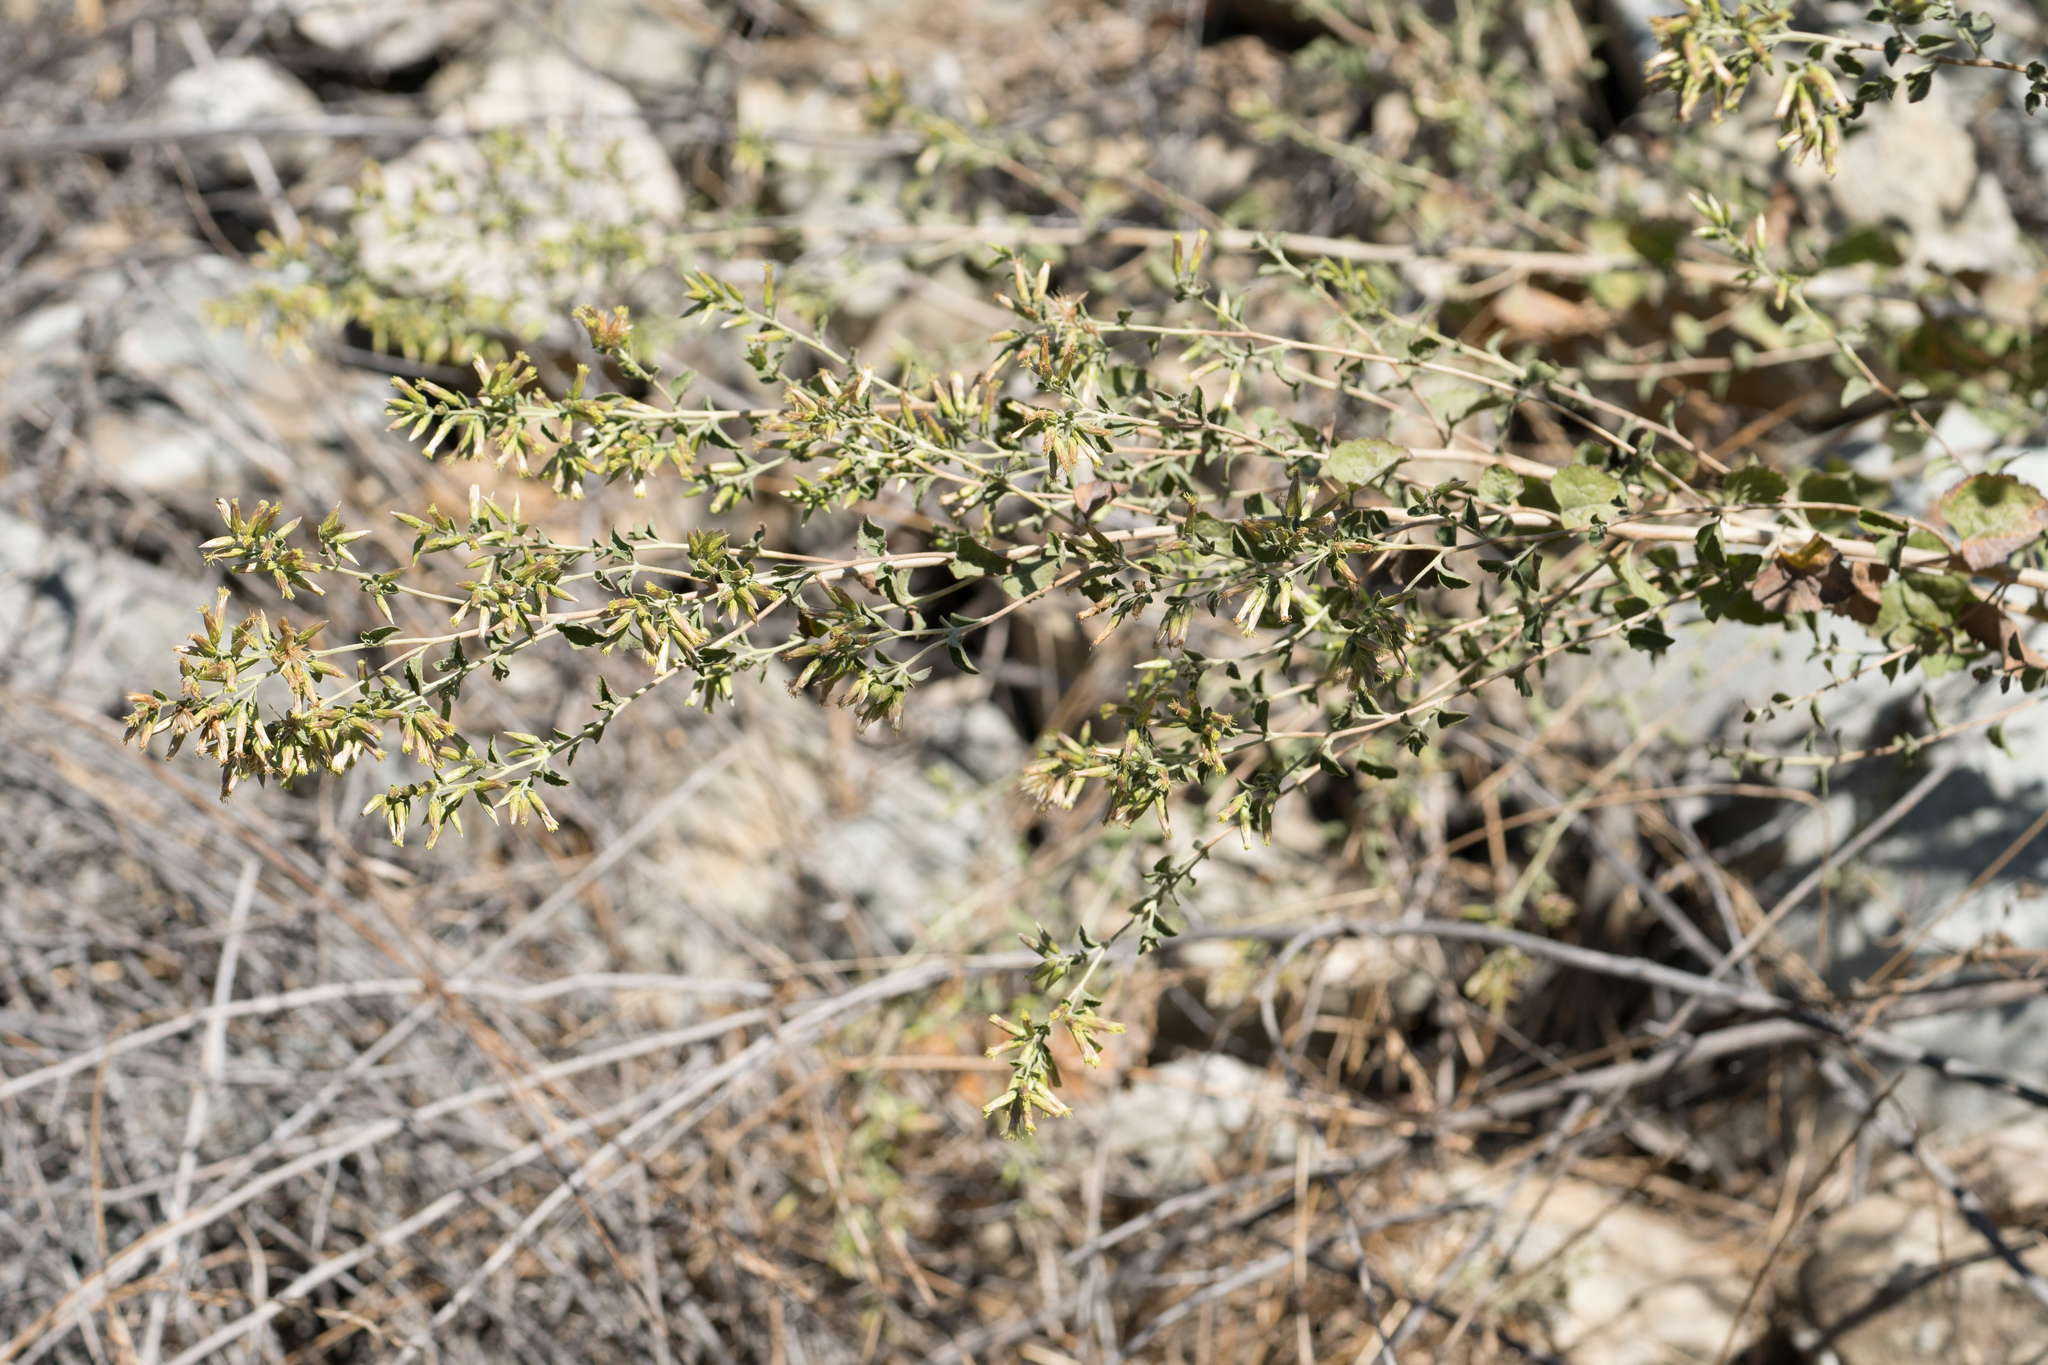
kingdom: Plantae
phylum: Tracheophyta
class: Magnoliopsida
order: Asterales
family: Asteraceae
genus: Brickellia
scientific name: Brickellia californica
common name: California brickellbush
